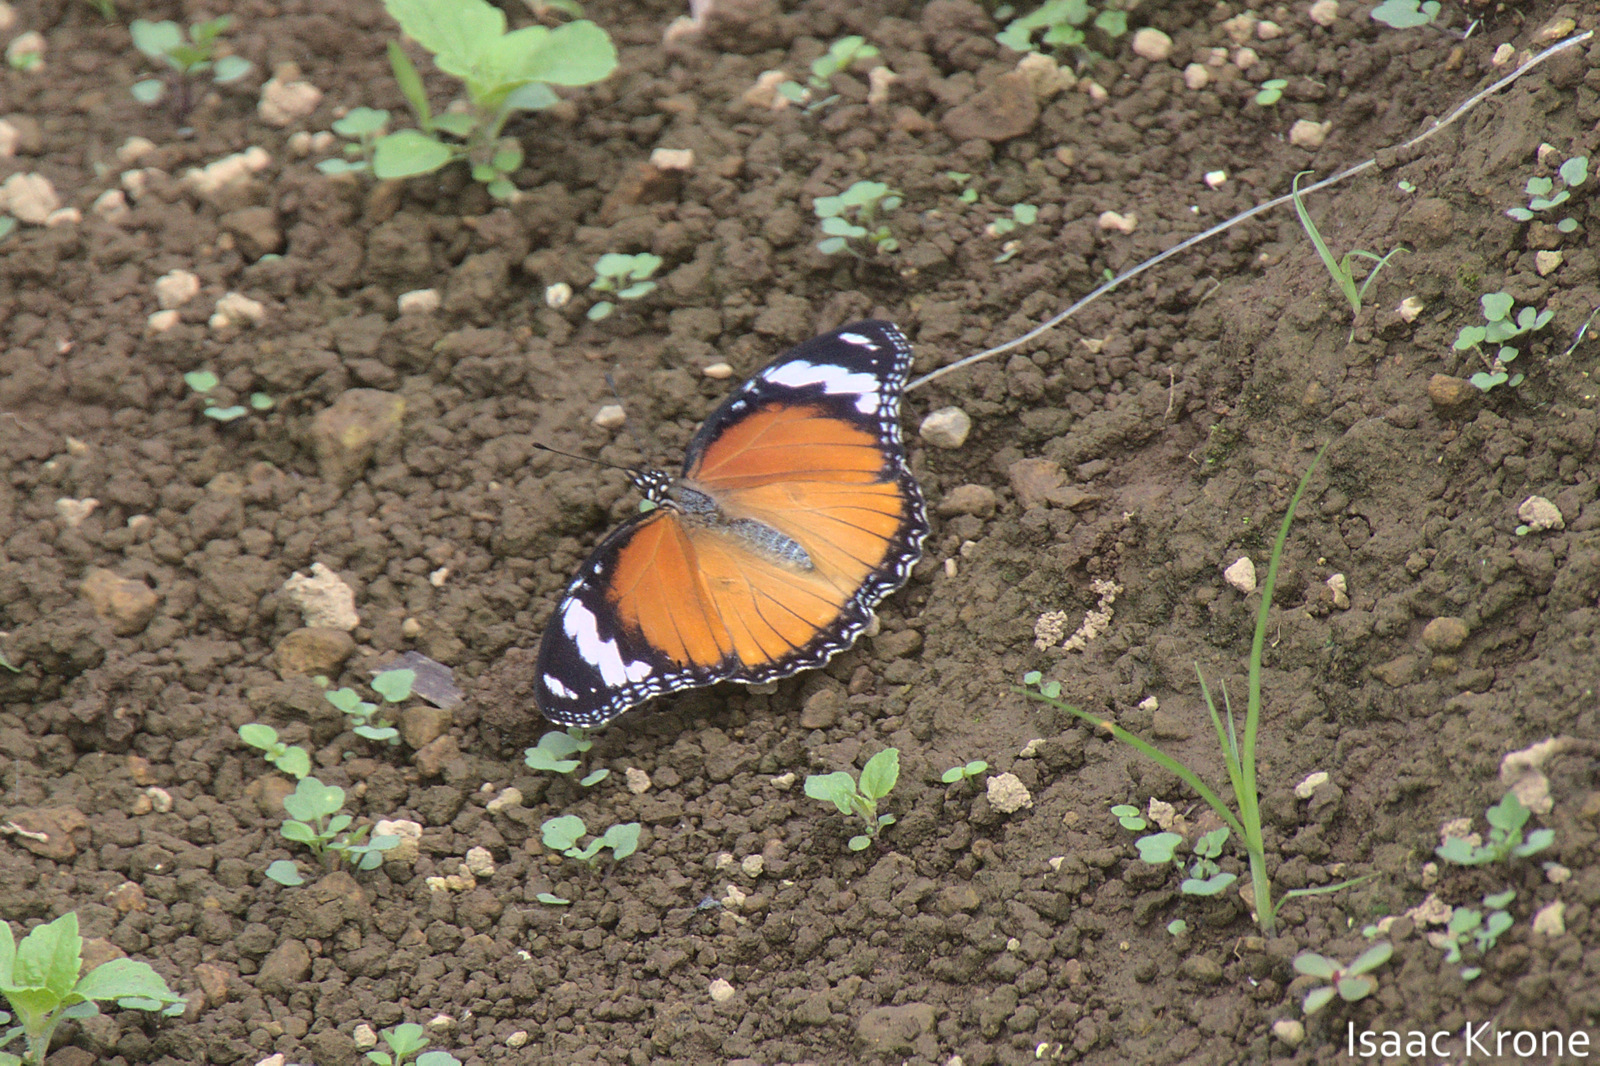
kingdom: Animalia
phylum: Arthropoda
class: Insecta
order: Lepidoptera
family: Nymphalidae
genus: Hypolimnas
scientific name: Hypolimnas misippus
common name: False plain tiger
